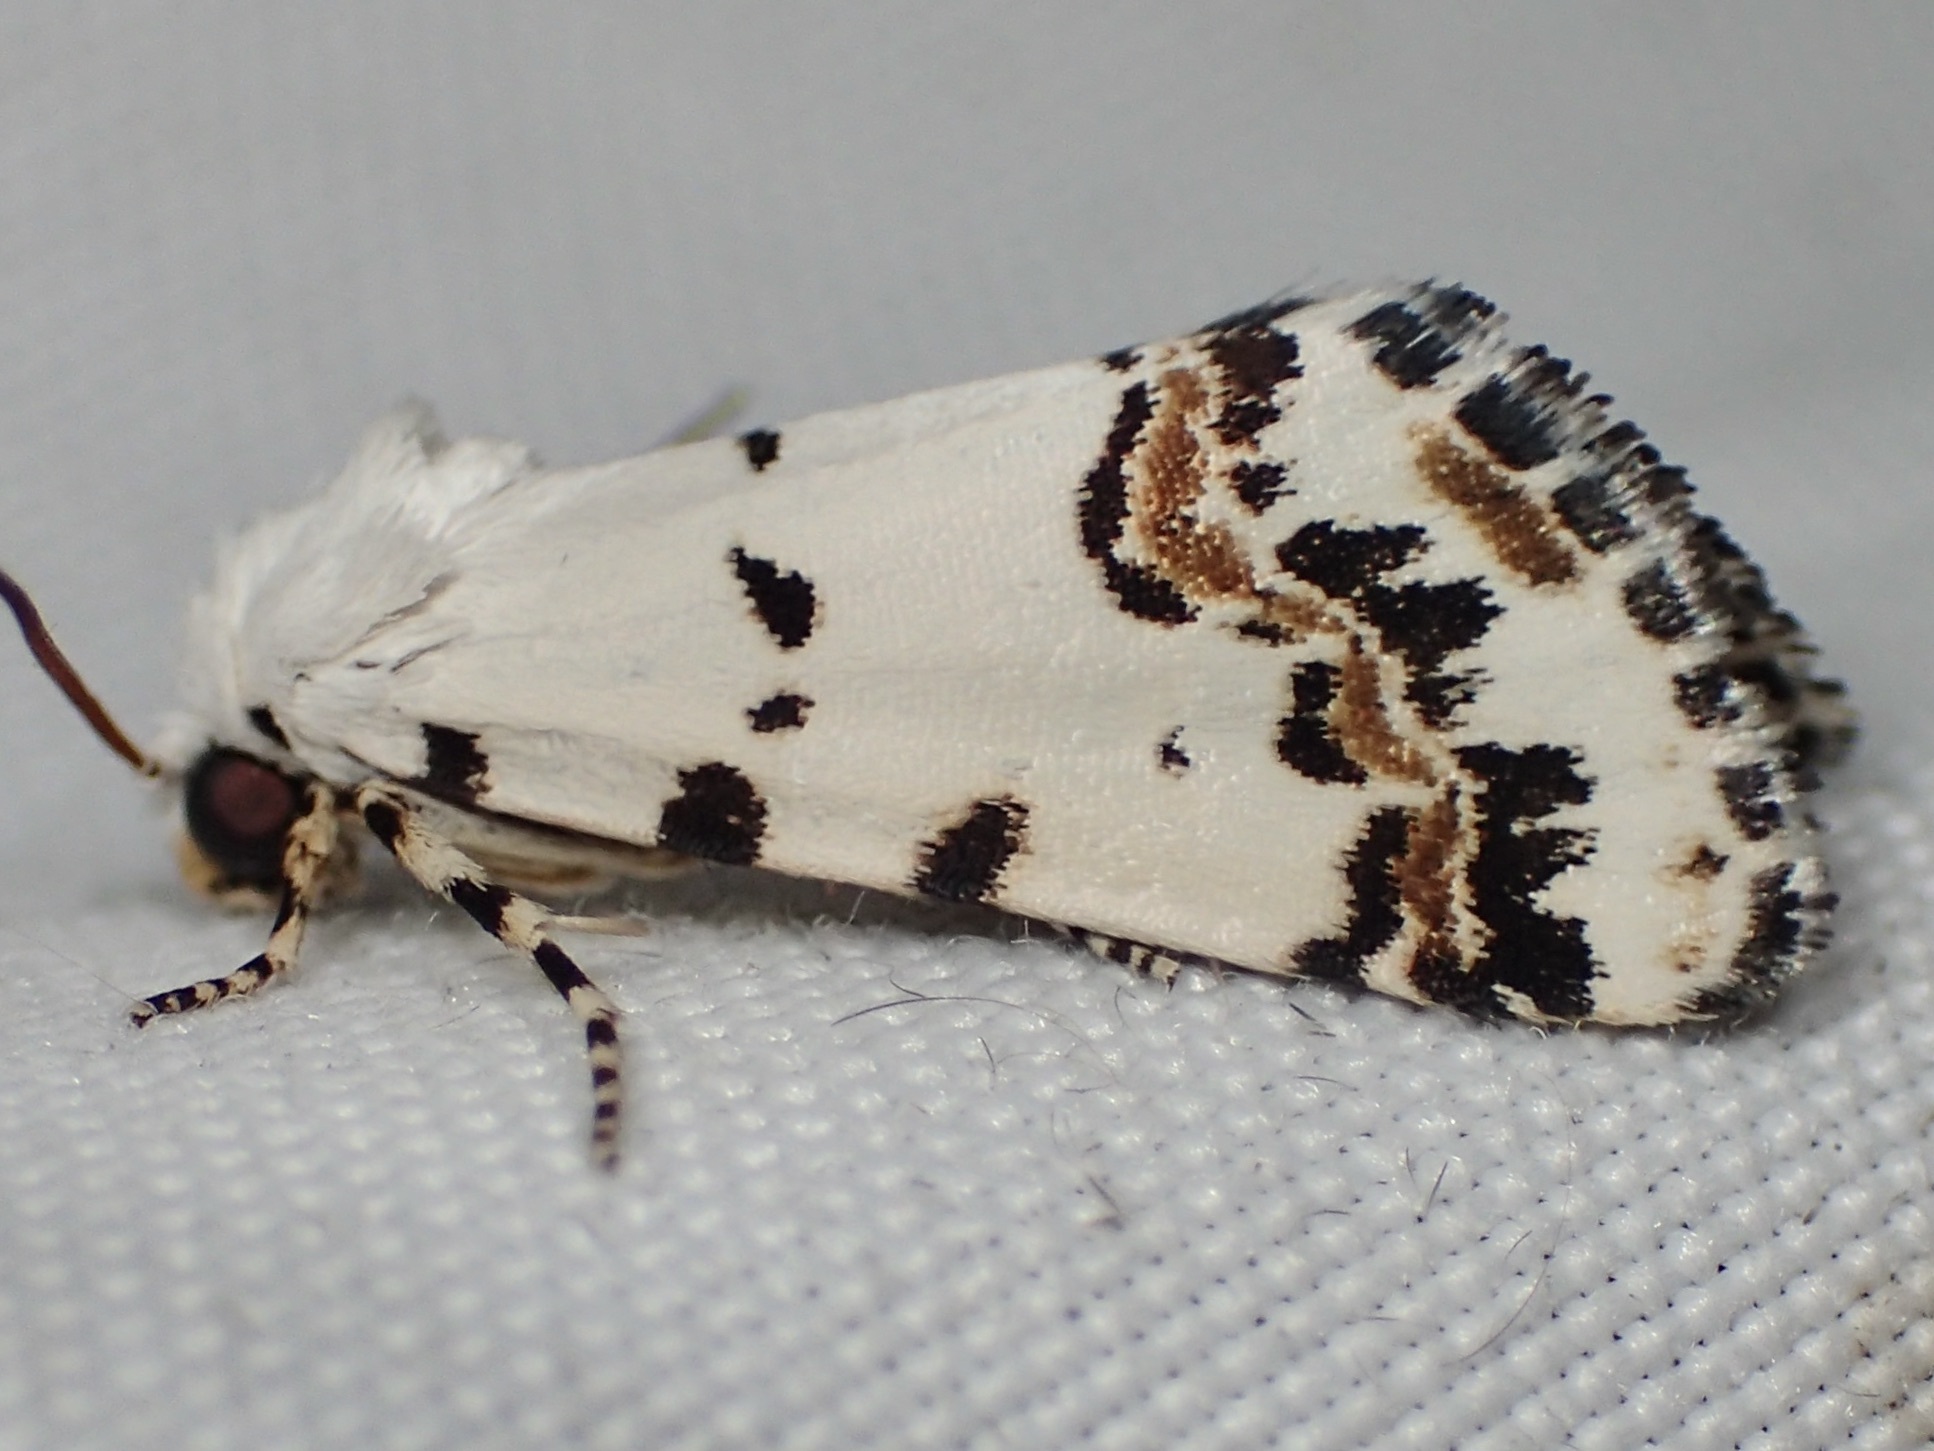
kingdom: Animalia
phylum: Arthropoda
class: Insecta
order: Lepidoptera
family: Noctuidae
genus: Grotella
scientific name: Grotella tricolor
